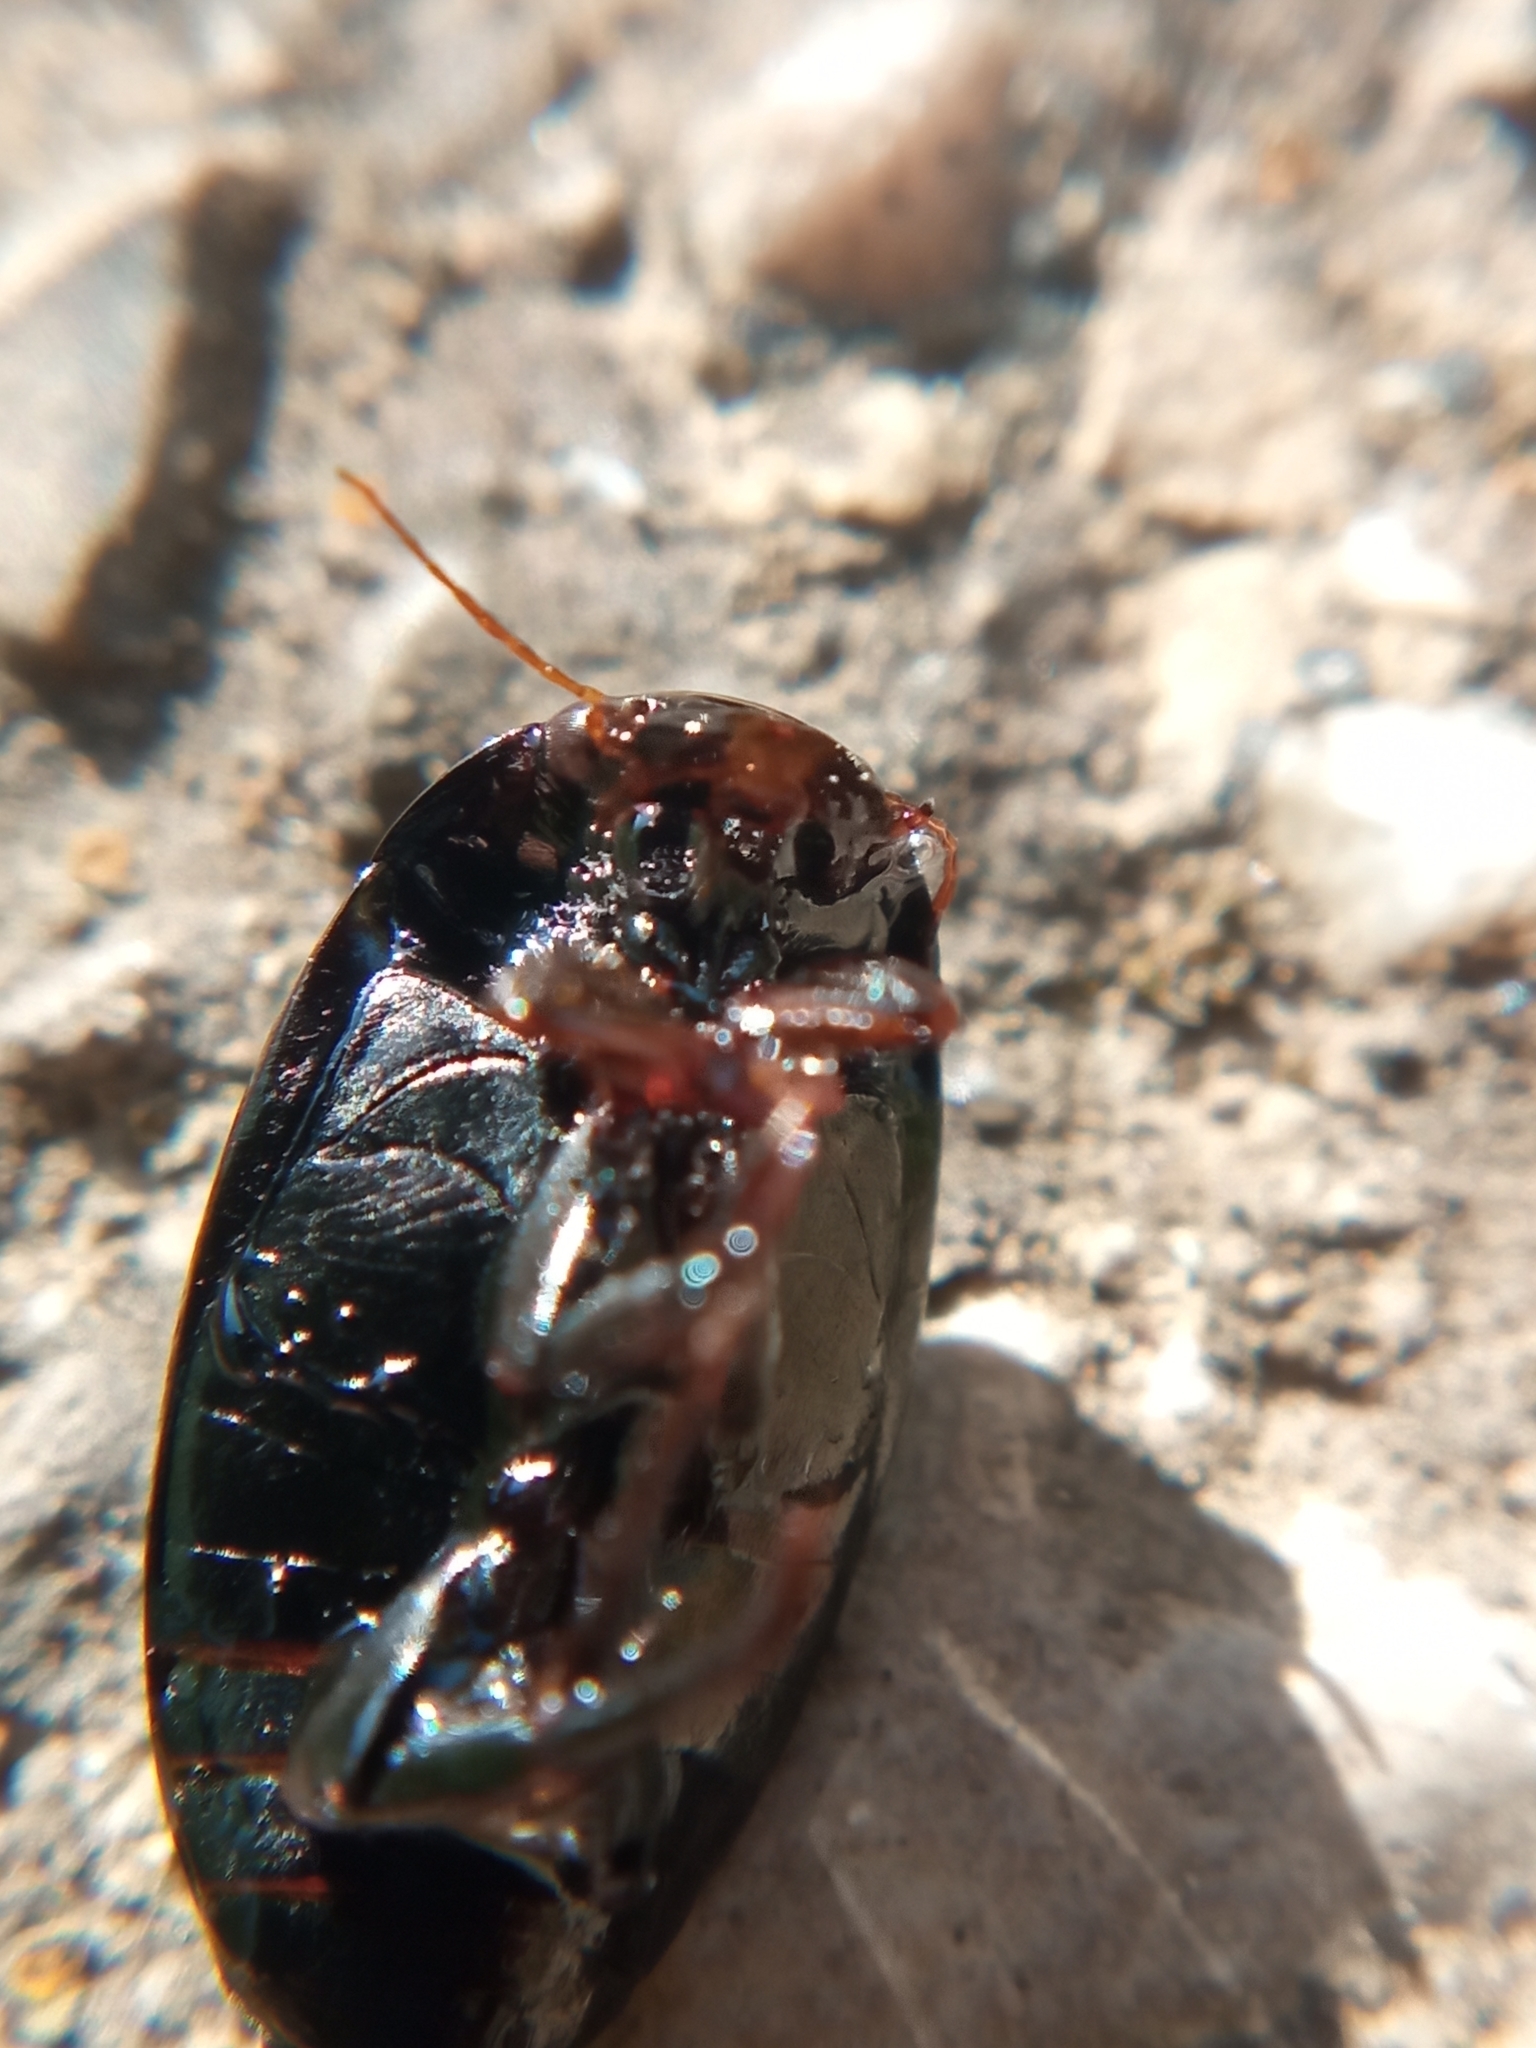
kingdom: Animalia
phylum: Arthropoda
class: Insecta
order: Coleoptera
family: Dytiscidae
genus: Agabus
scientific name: Agabus bipustulatus
